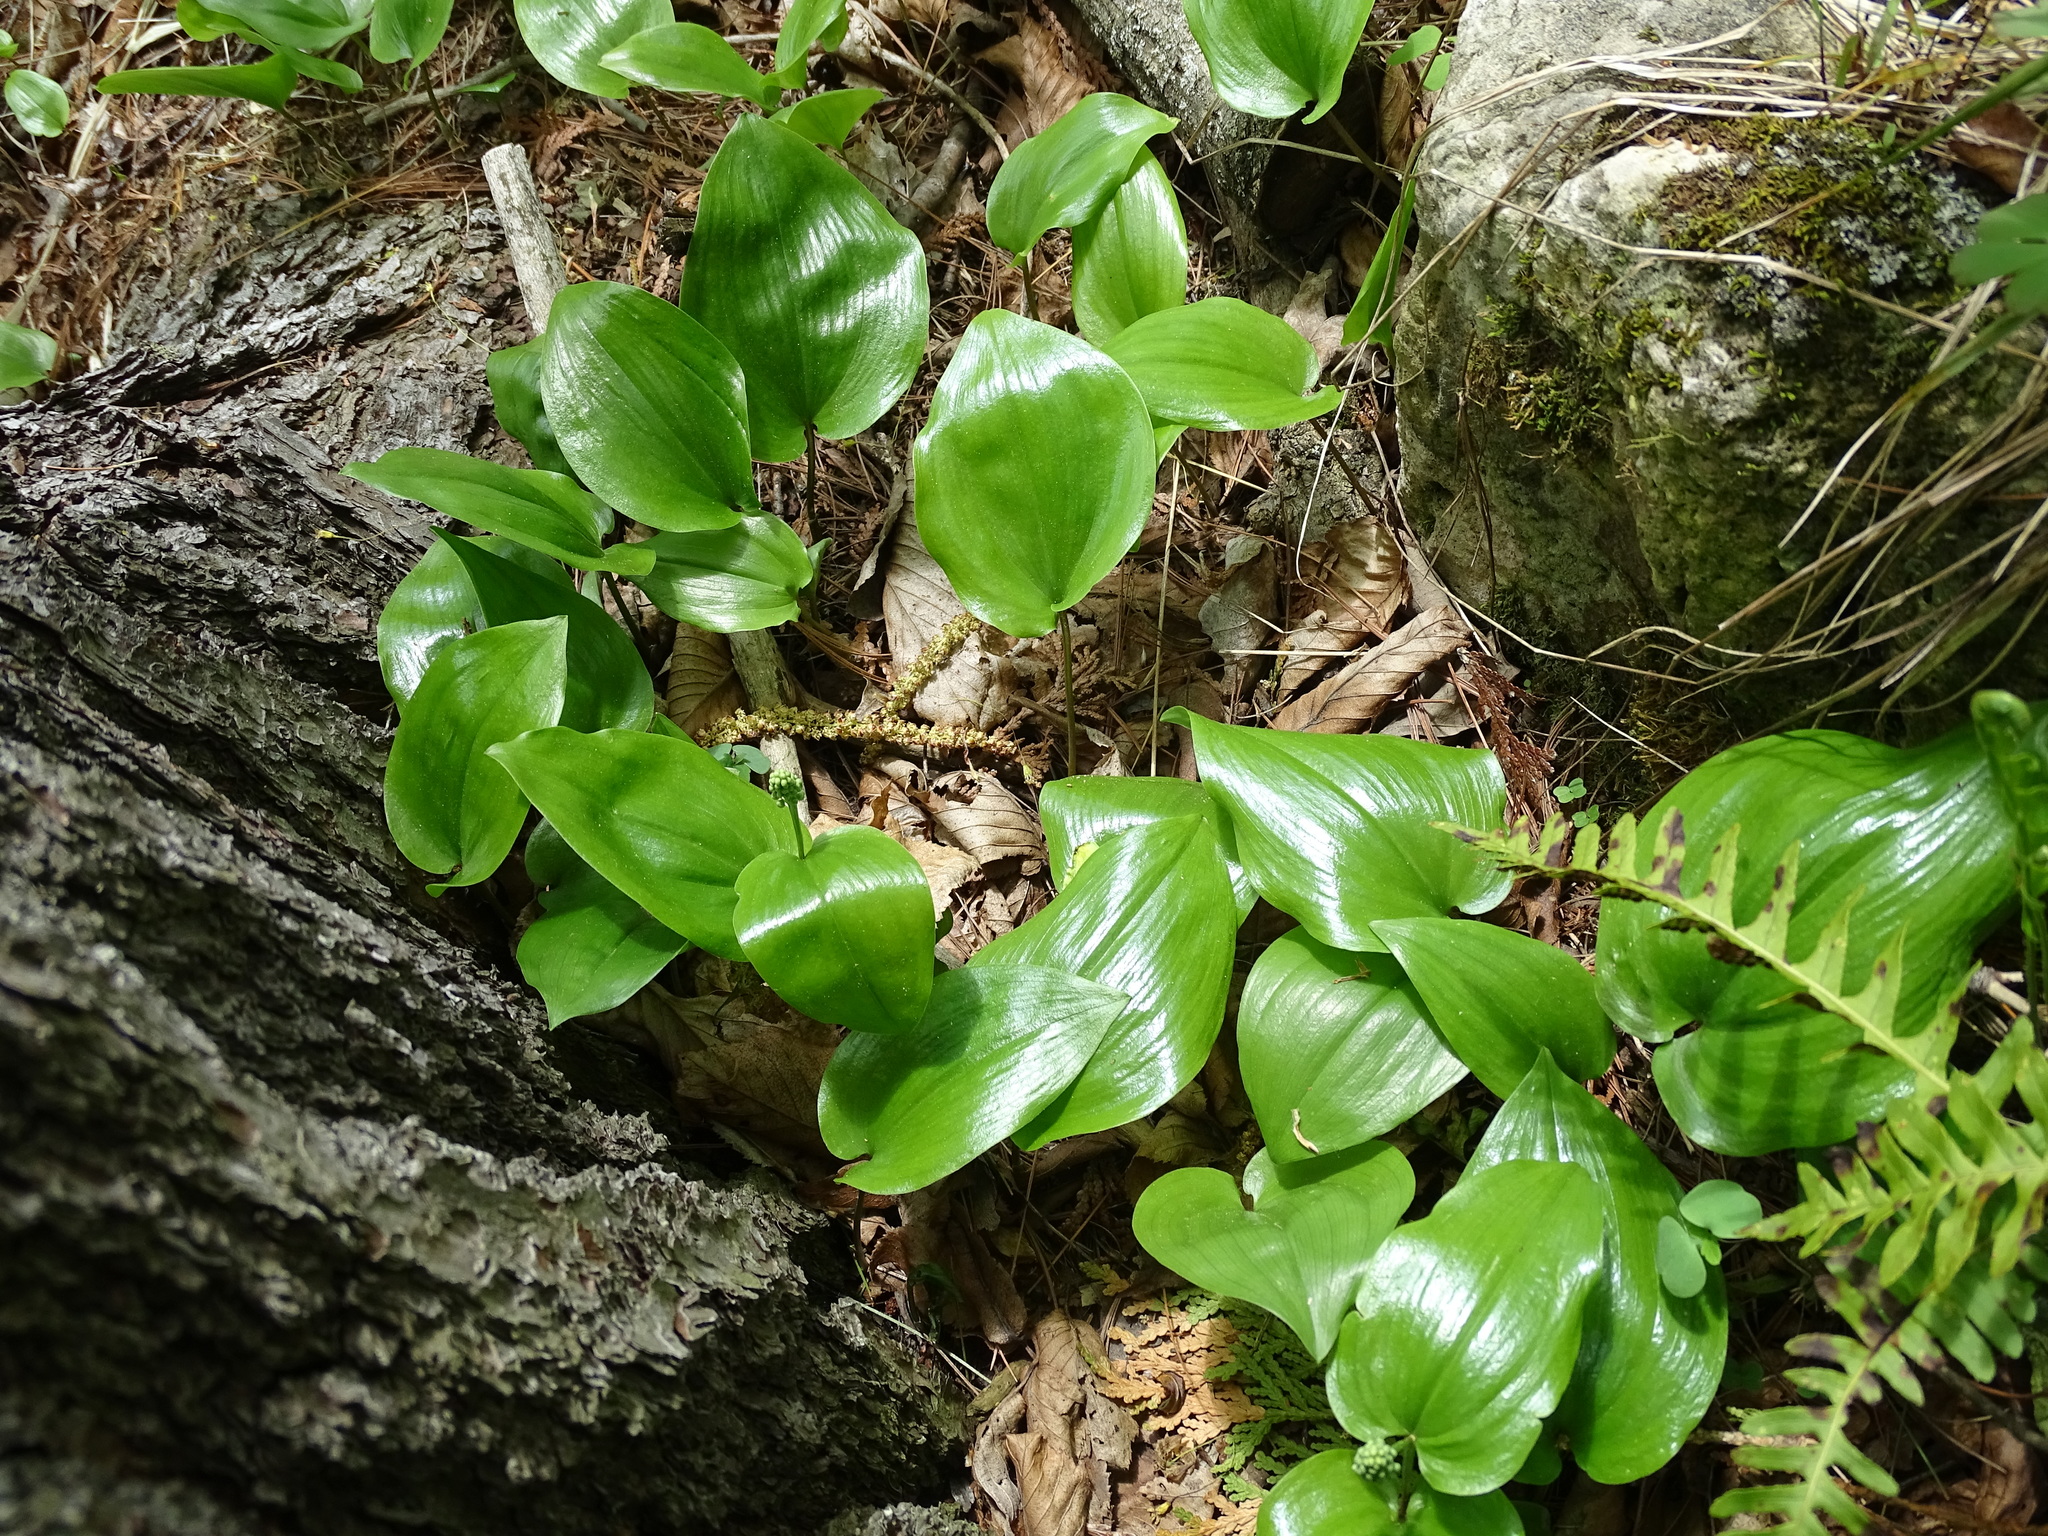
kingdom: Plantae
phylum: Tracheophyta
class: Liliopsida
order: Asparagales
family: Asparagaceae
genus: Maianthemum
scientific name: Maianthemum canadense
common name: False lily-of-the-valley
